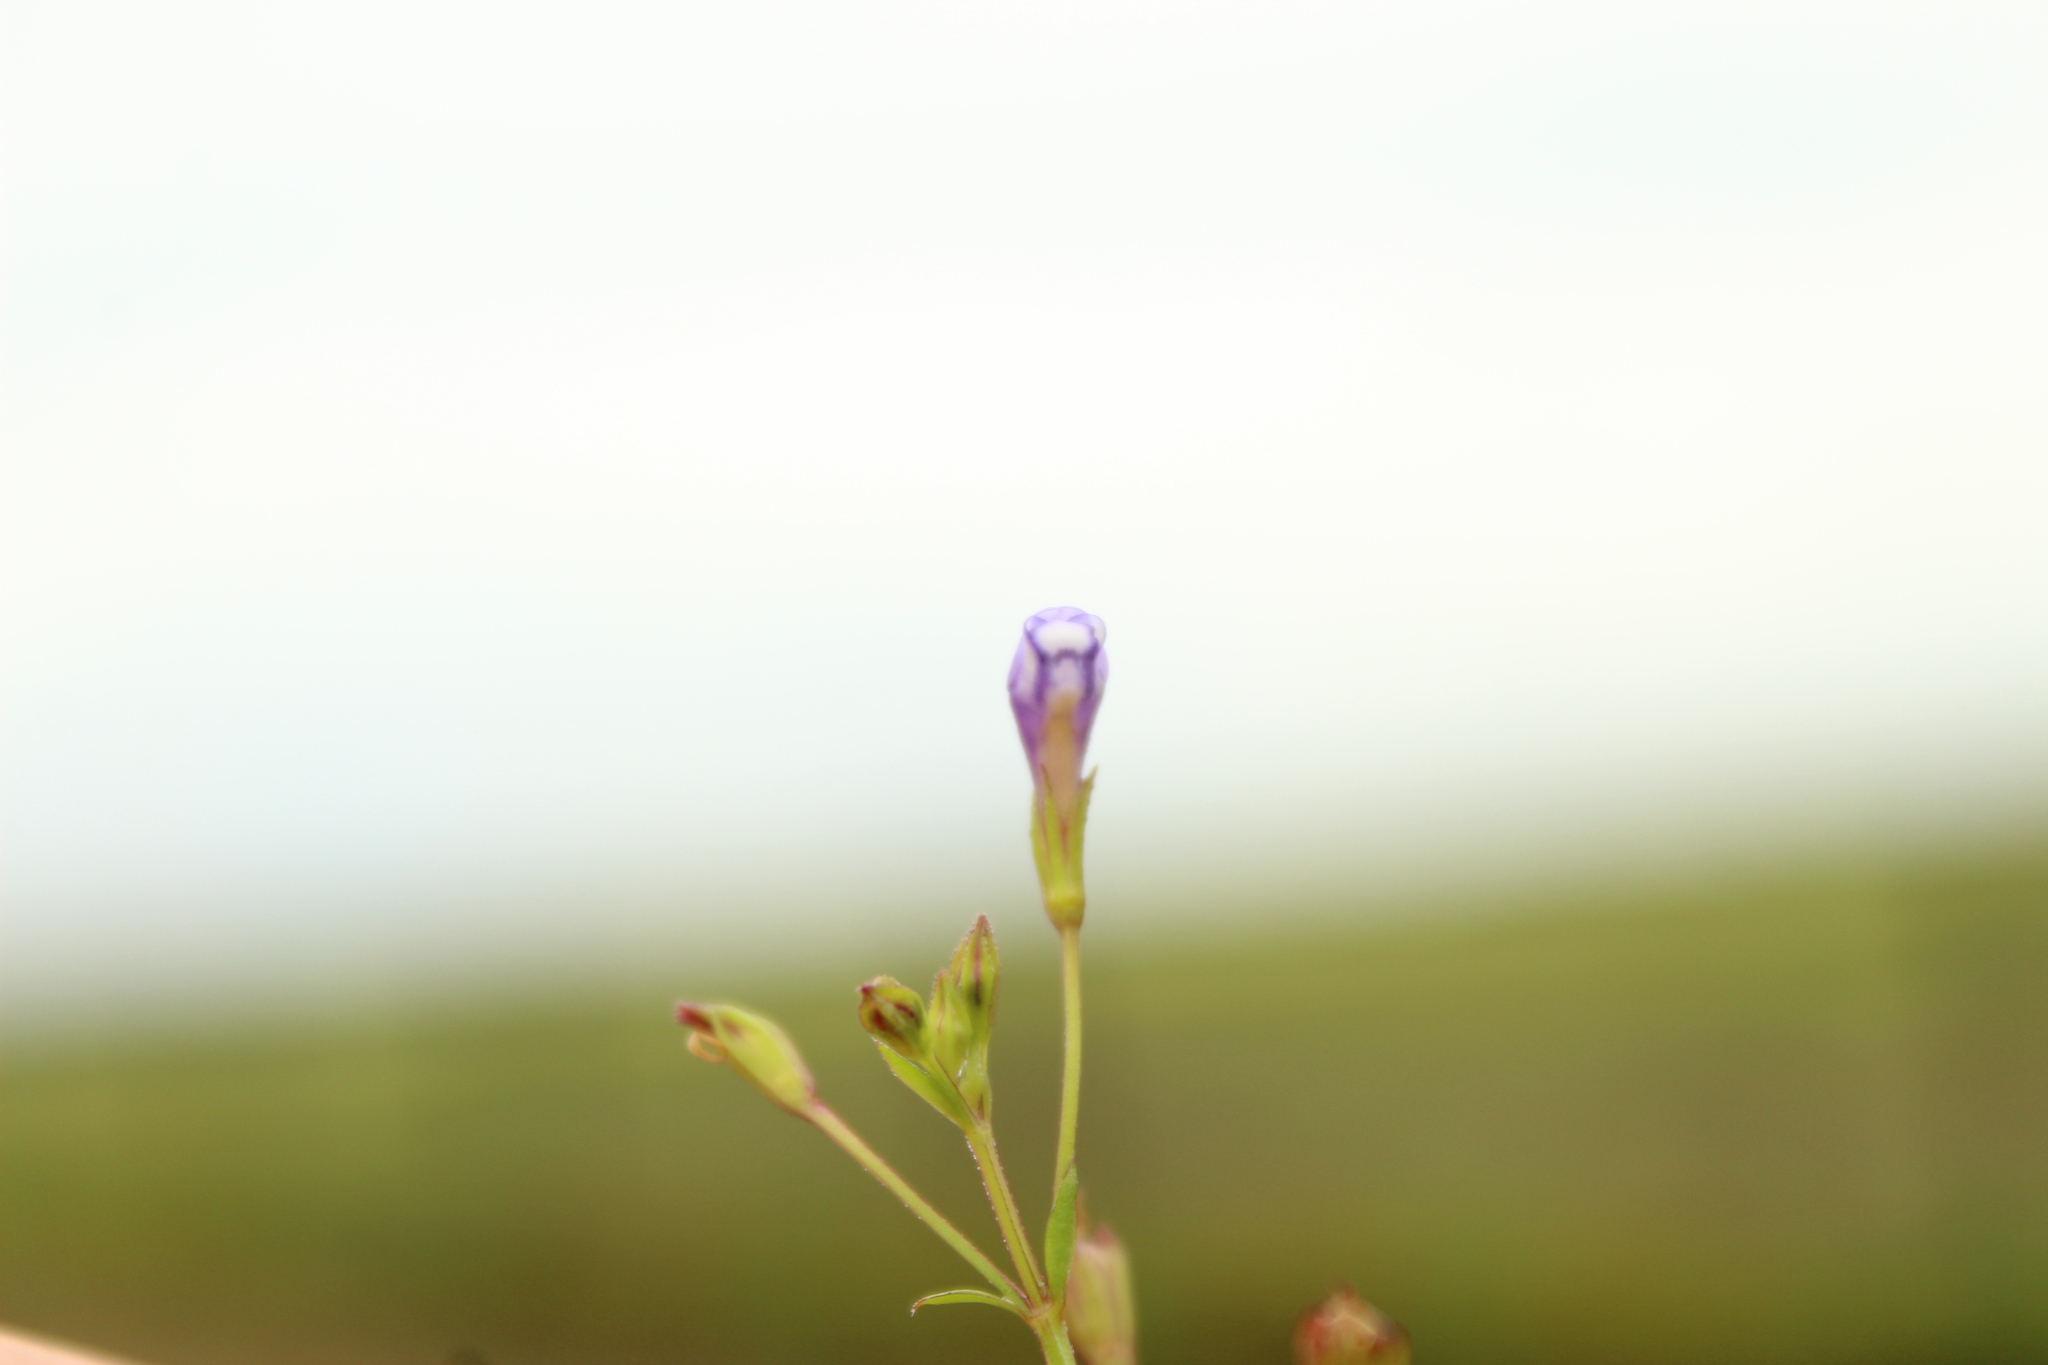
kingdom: Plantae
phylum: Tracheophyta
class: Magnoliopsida
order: Lamiales
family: Linderniaceae
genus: Torenia
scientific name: Torenia crustacea
